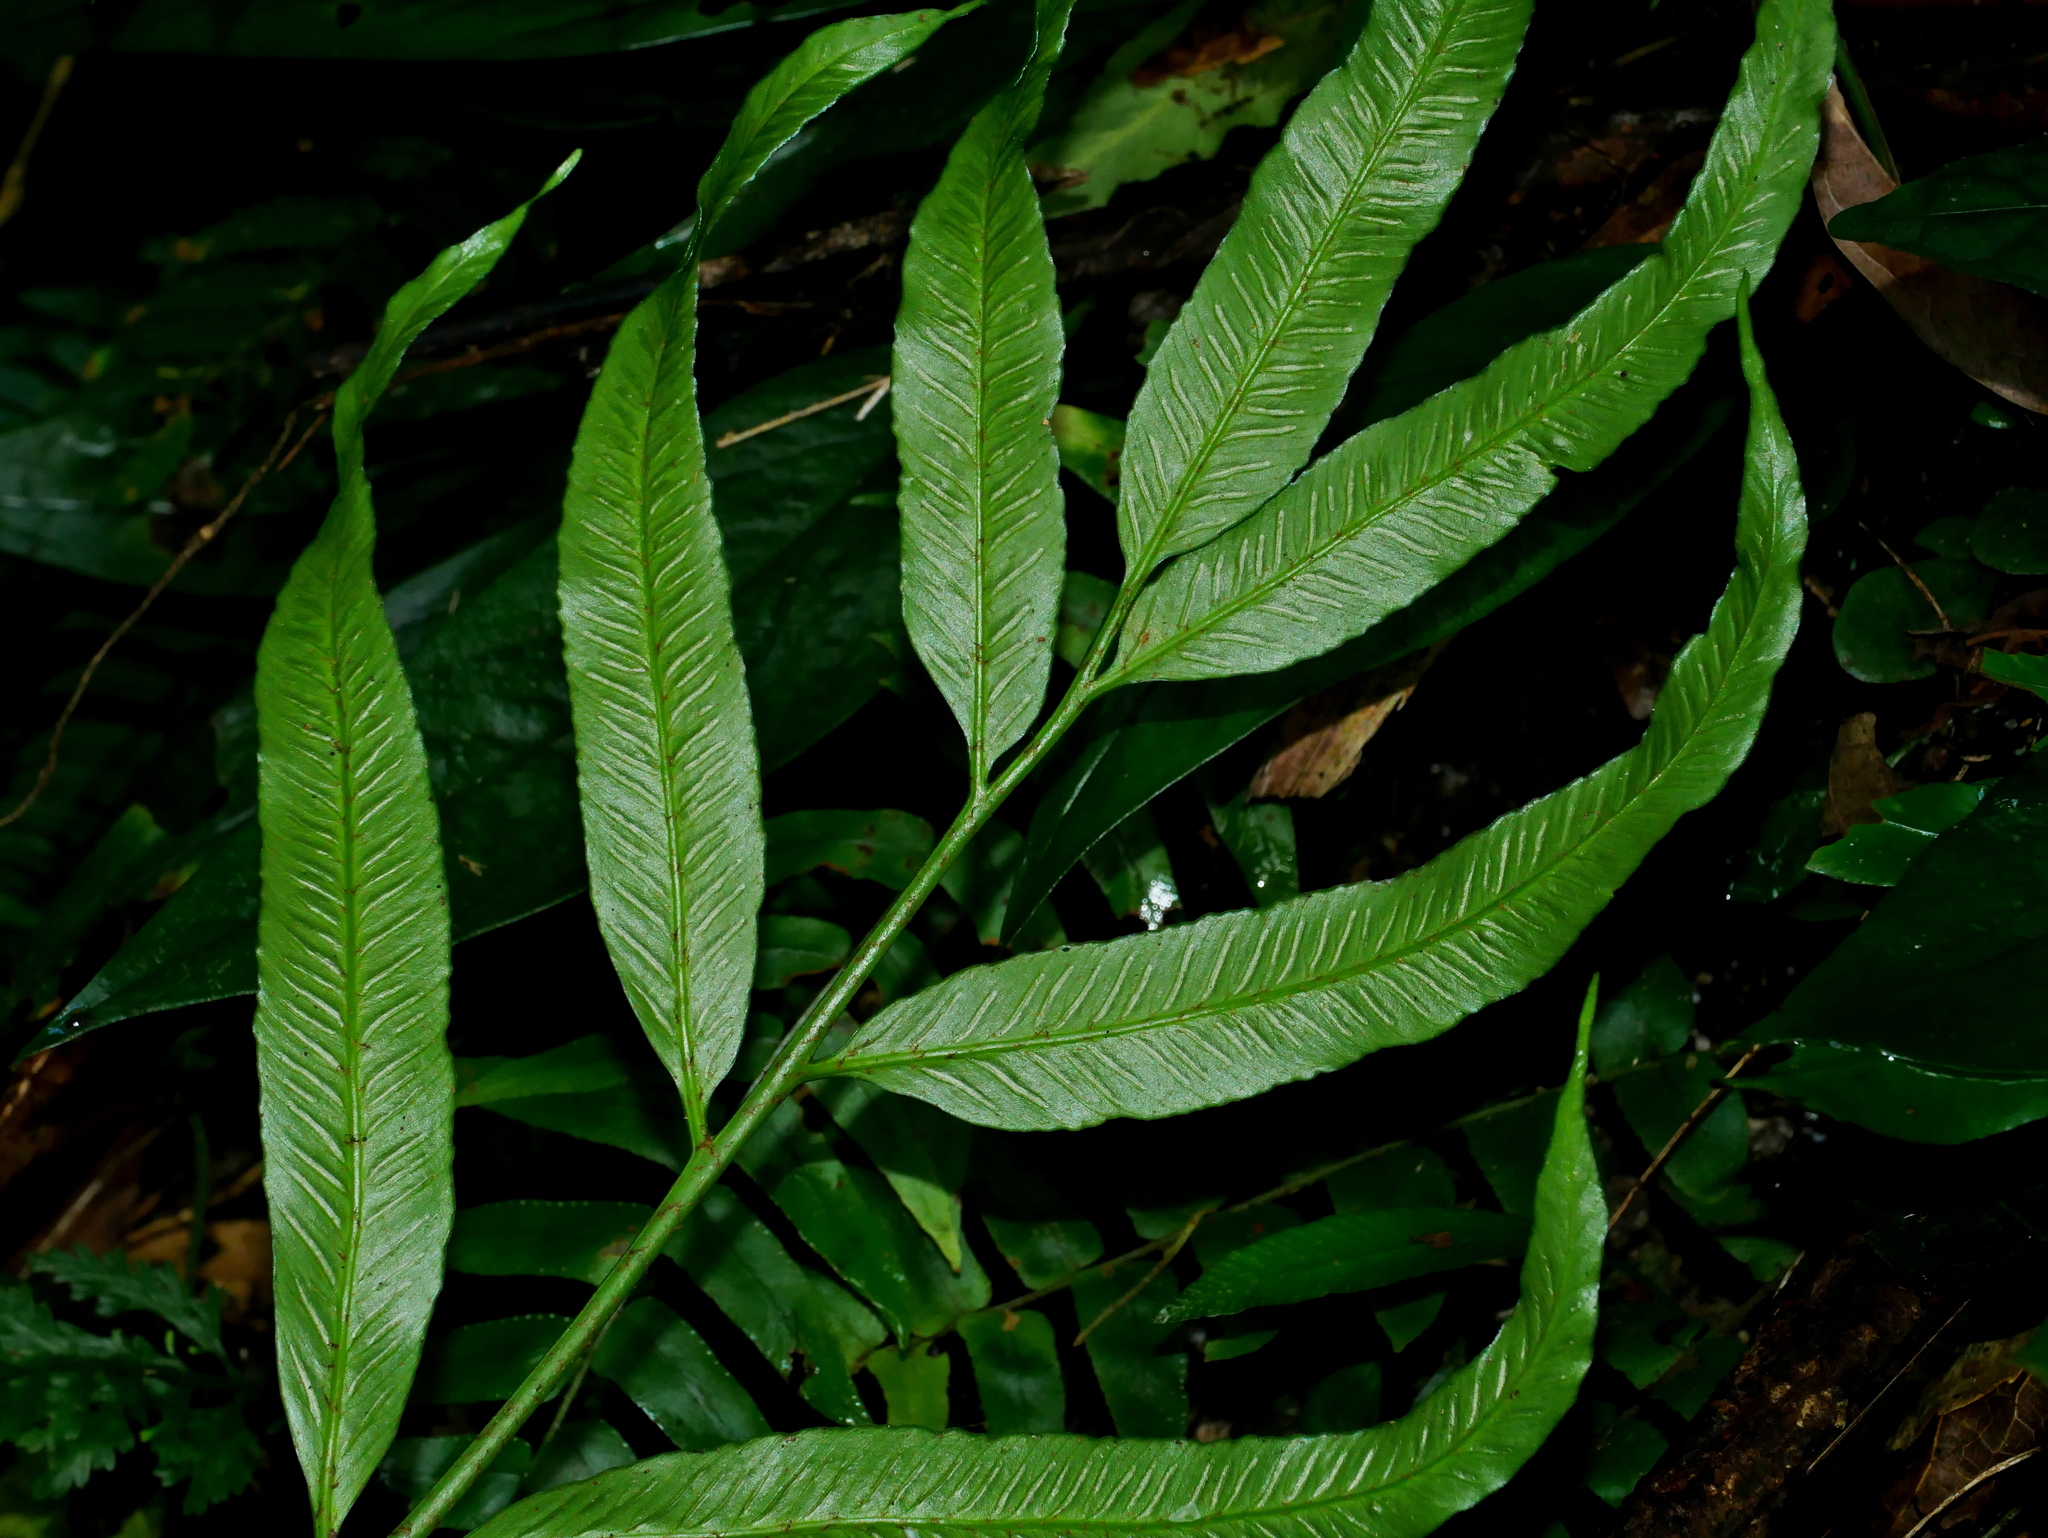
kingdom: Plantae
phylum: Tracheophyta
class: Polypodiopsida
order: Polypodiales
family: Aspleniaceae
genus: Asplenium
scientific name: Asplenium formosae
